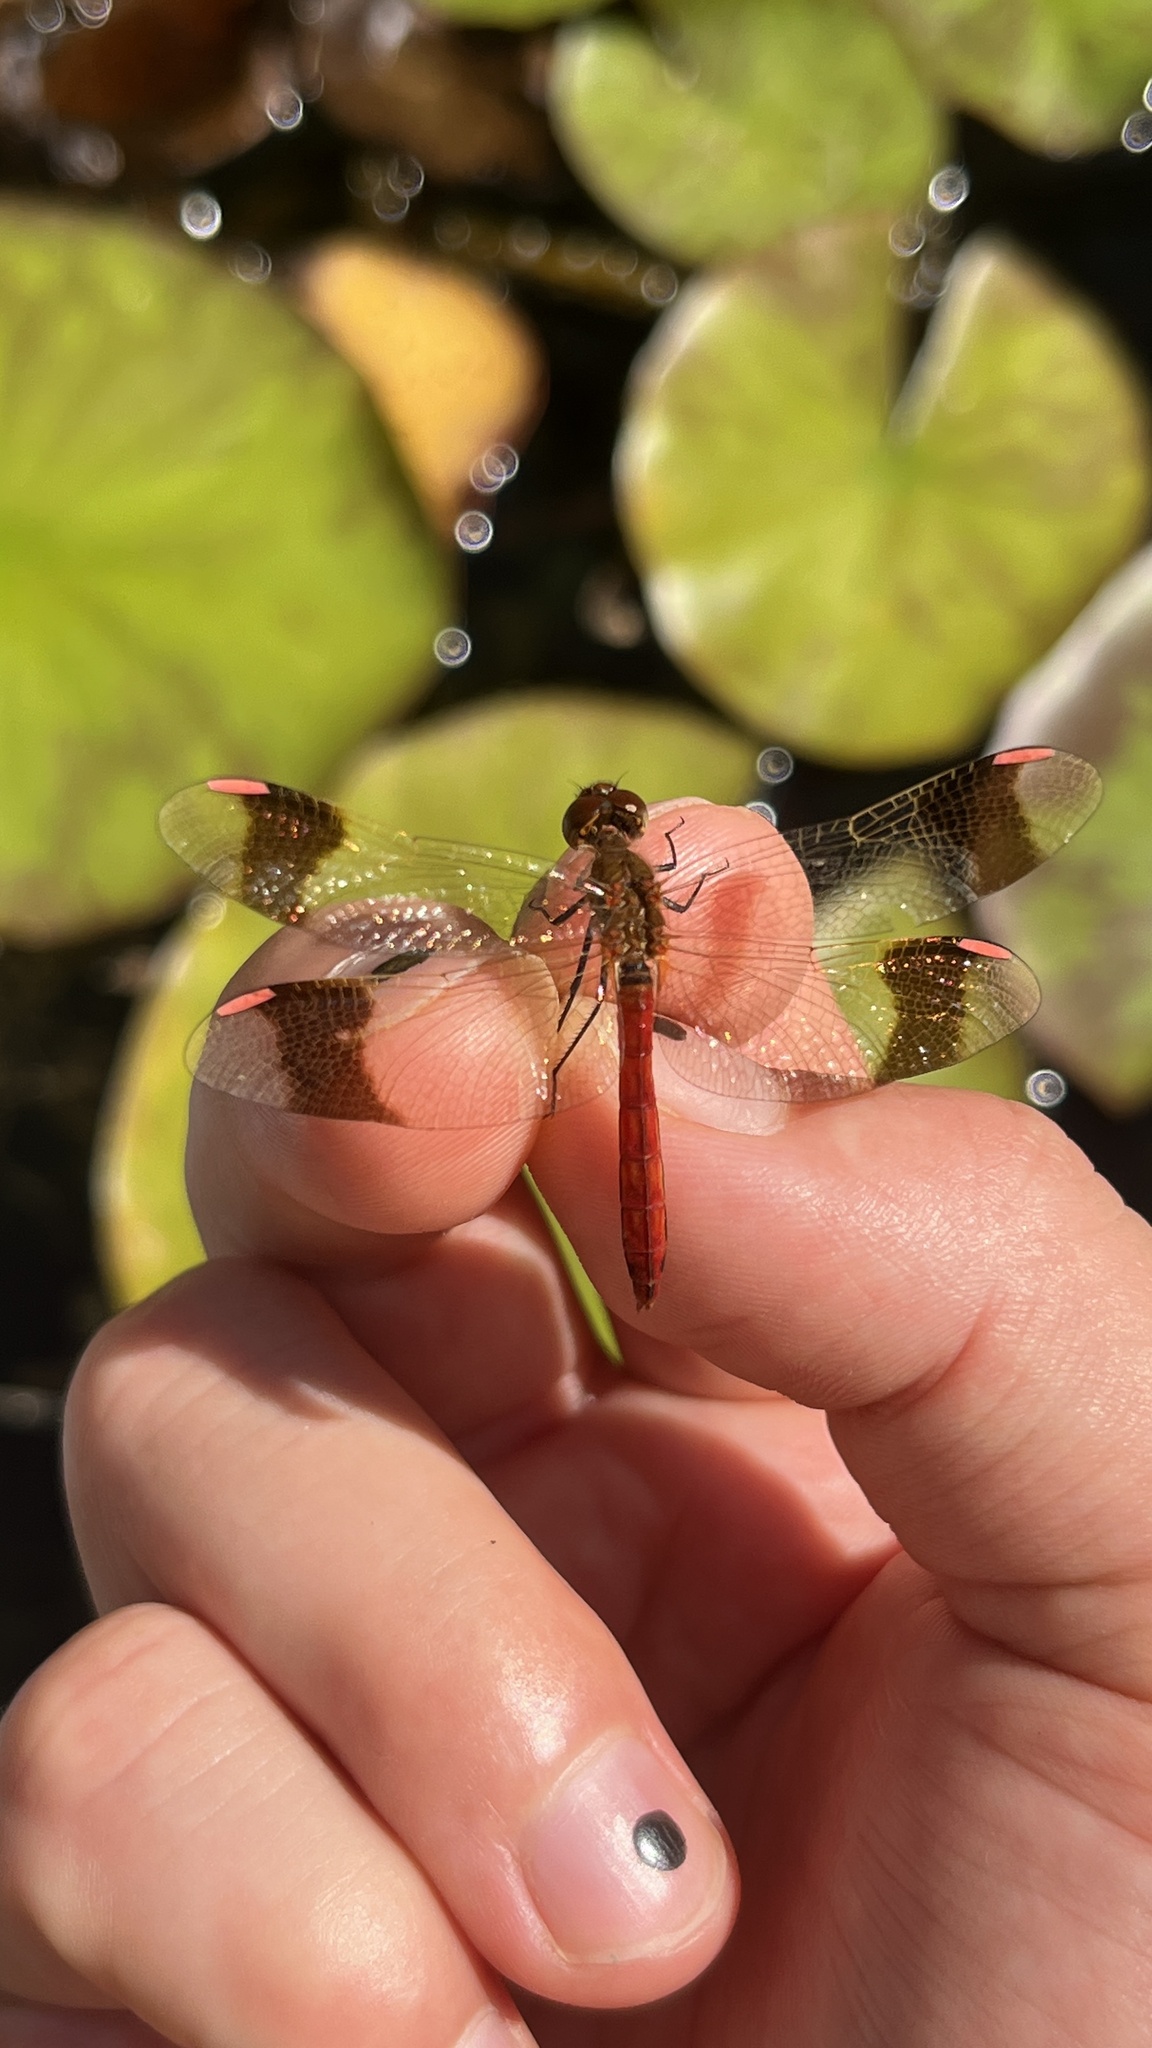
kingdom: Animalia
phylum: Arthropoda
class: Insecta
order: Odonata
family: Libellulidae
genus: Sympetrum
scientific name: Sympetrum pedemontanum
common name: Banded darter
